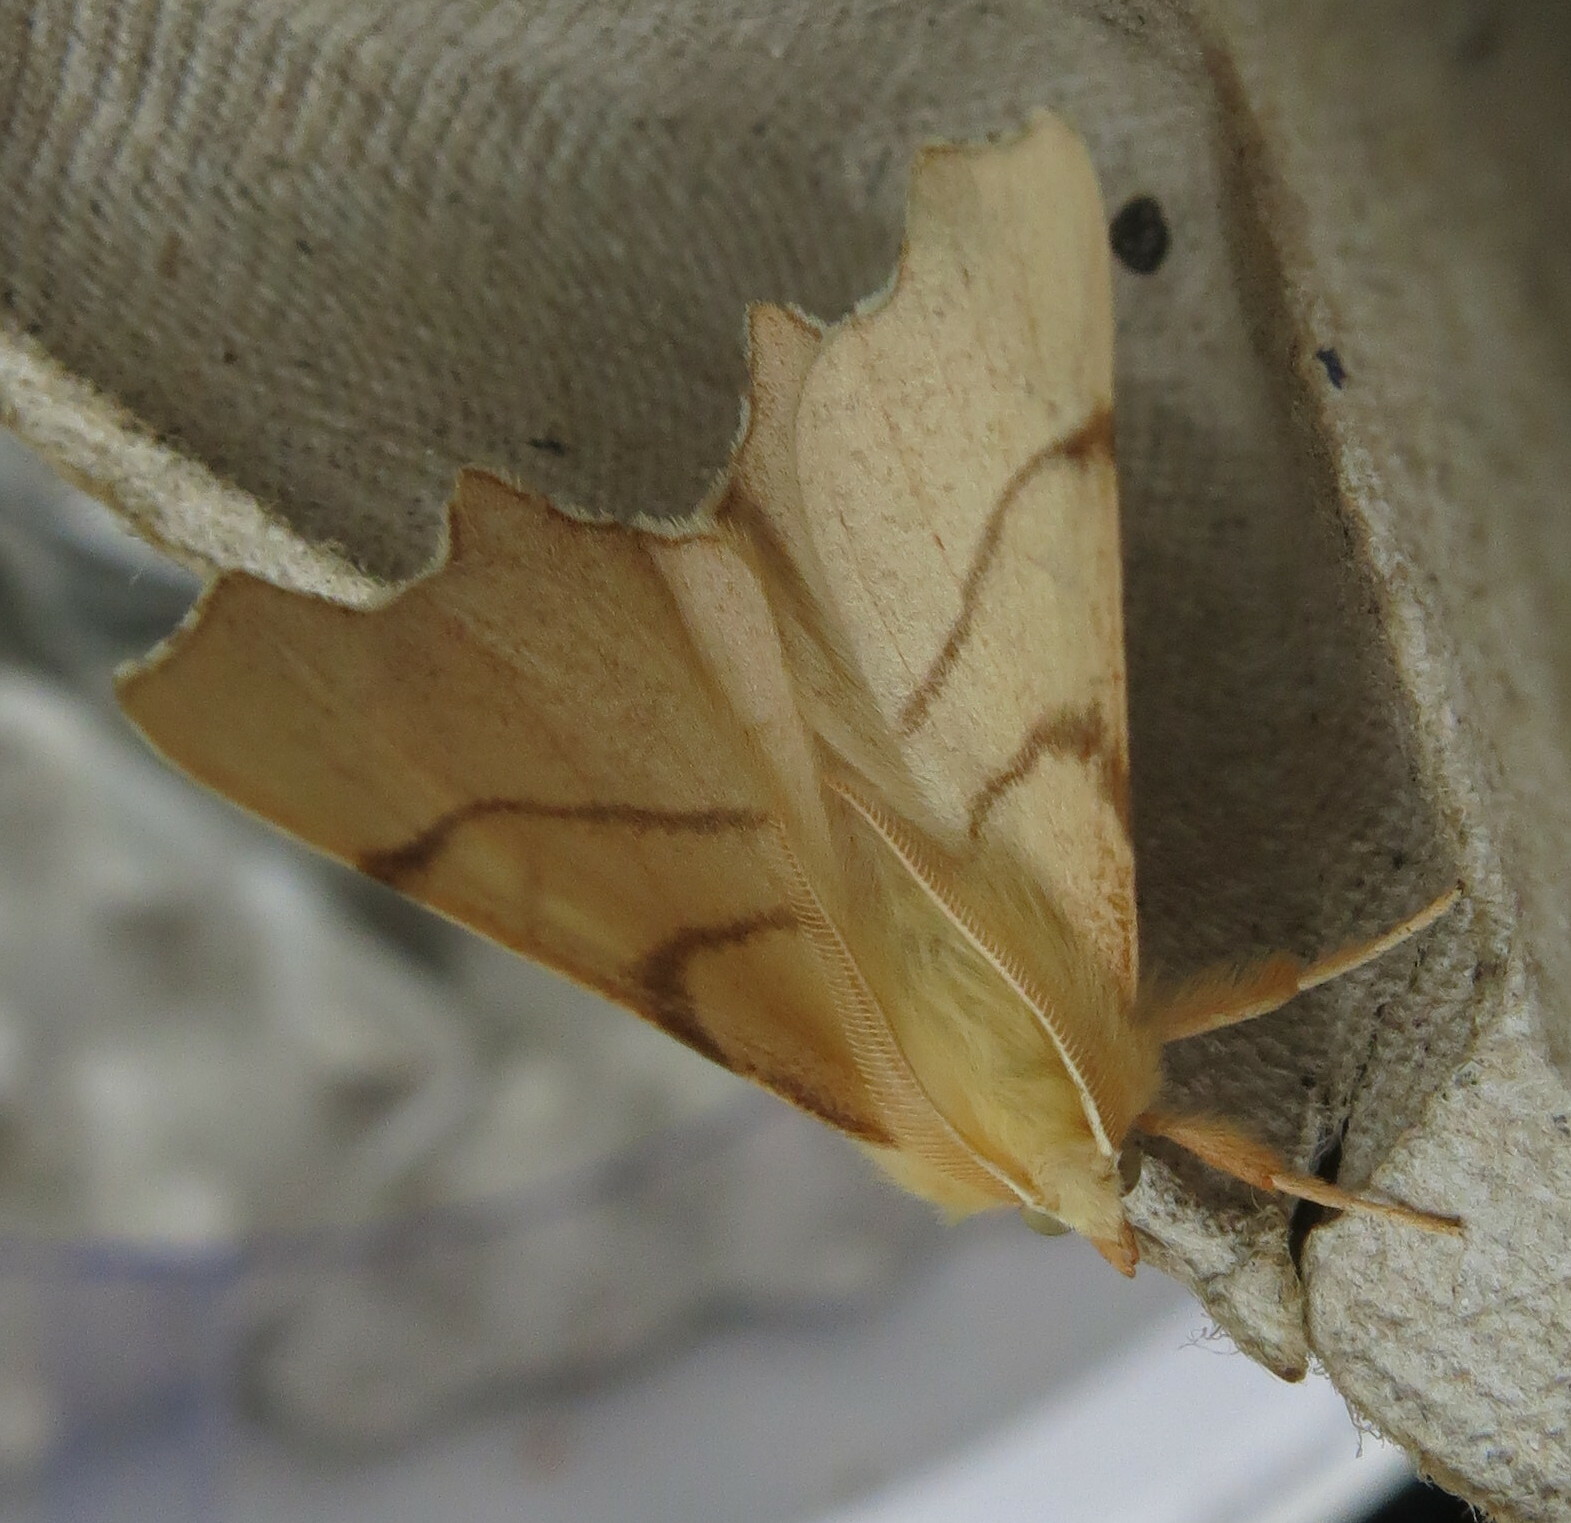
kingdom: Animalia
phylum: Arthropoda
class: Insecta
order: Lepidoptera
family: Geometridae
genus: Ennomos
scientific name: Ennomos erosaria
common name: September thorn
